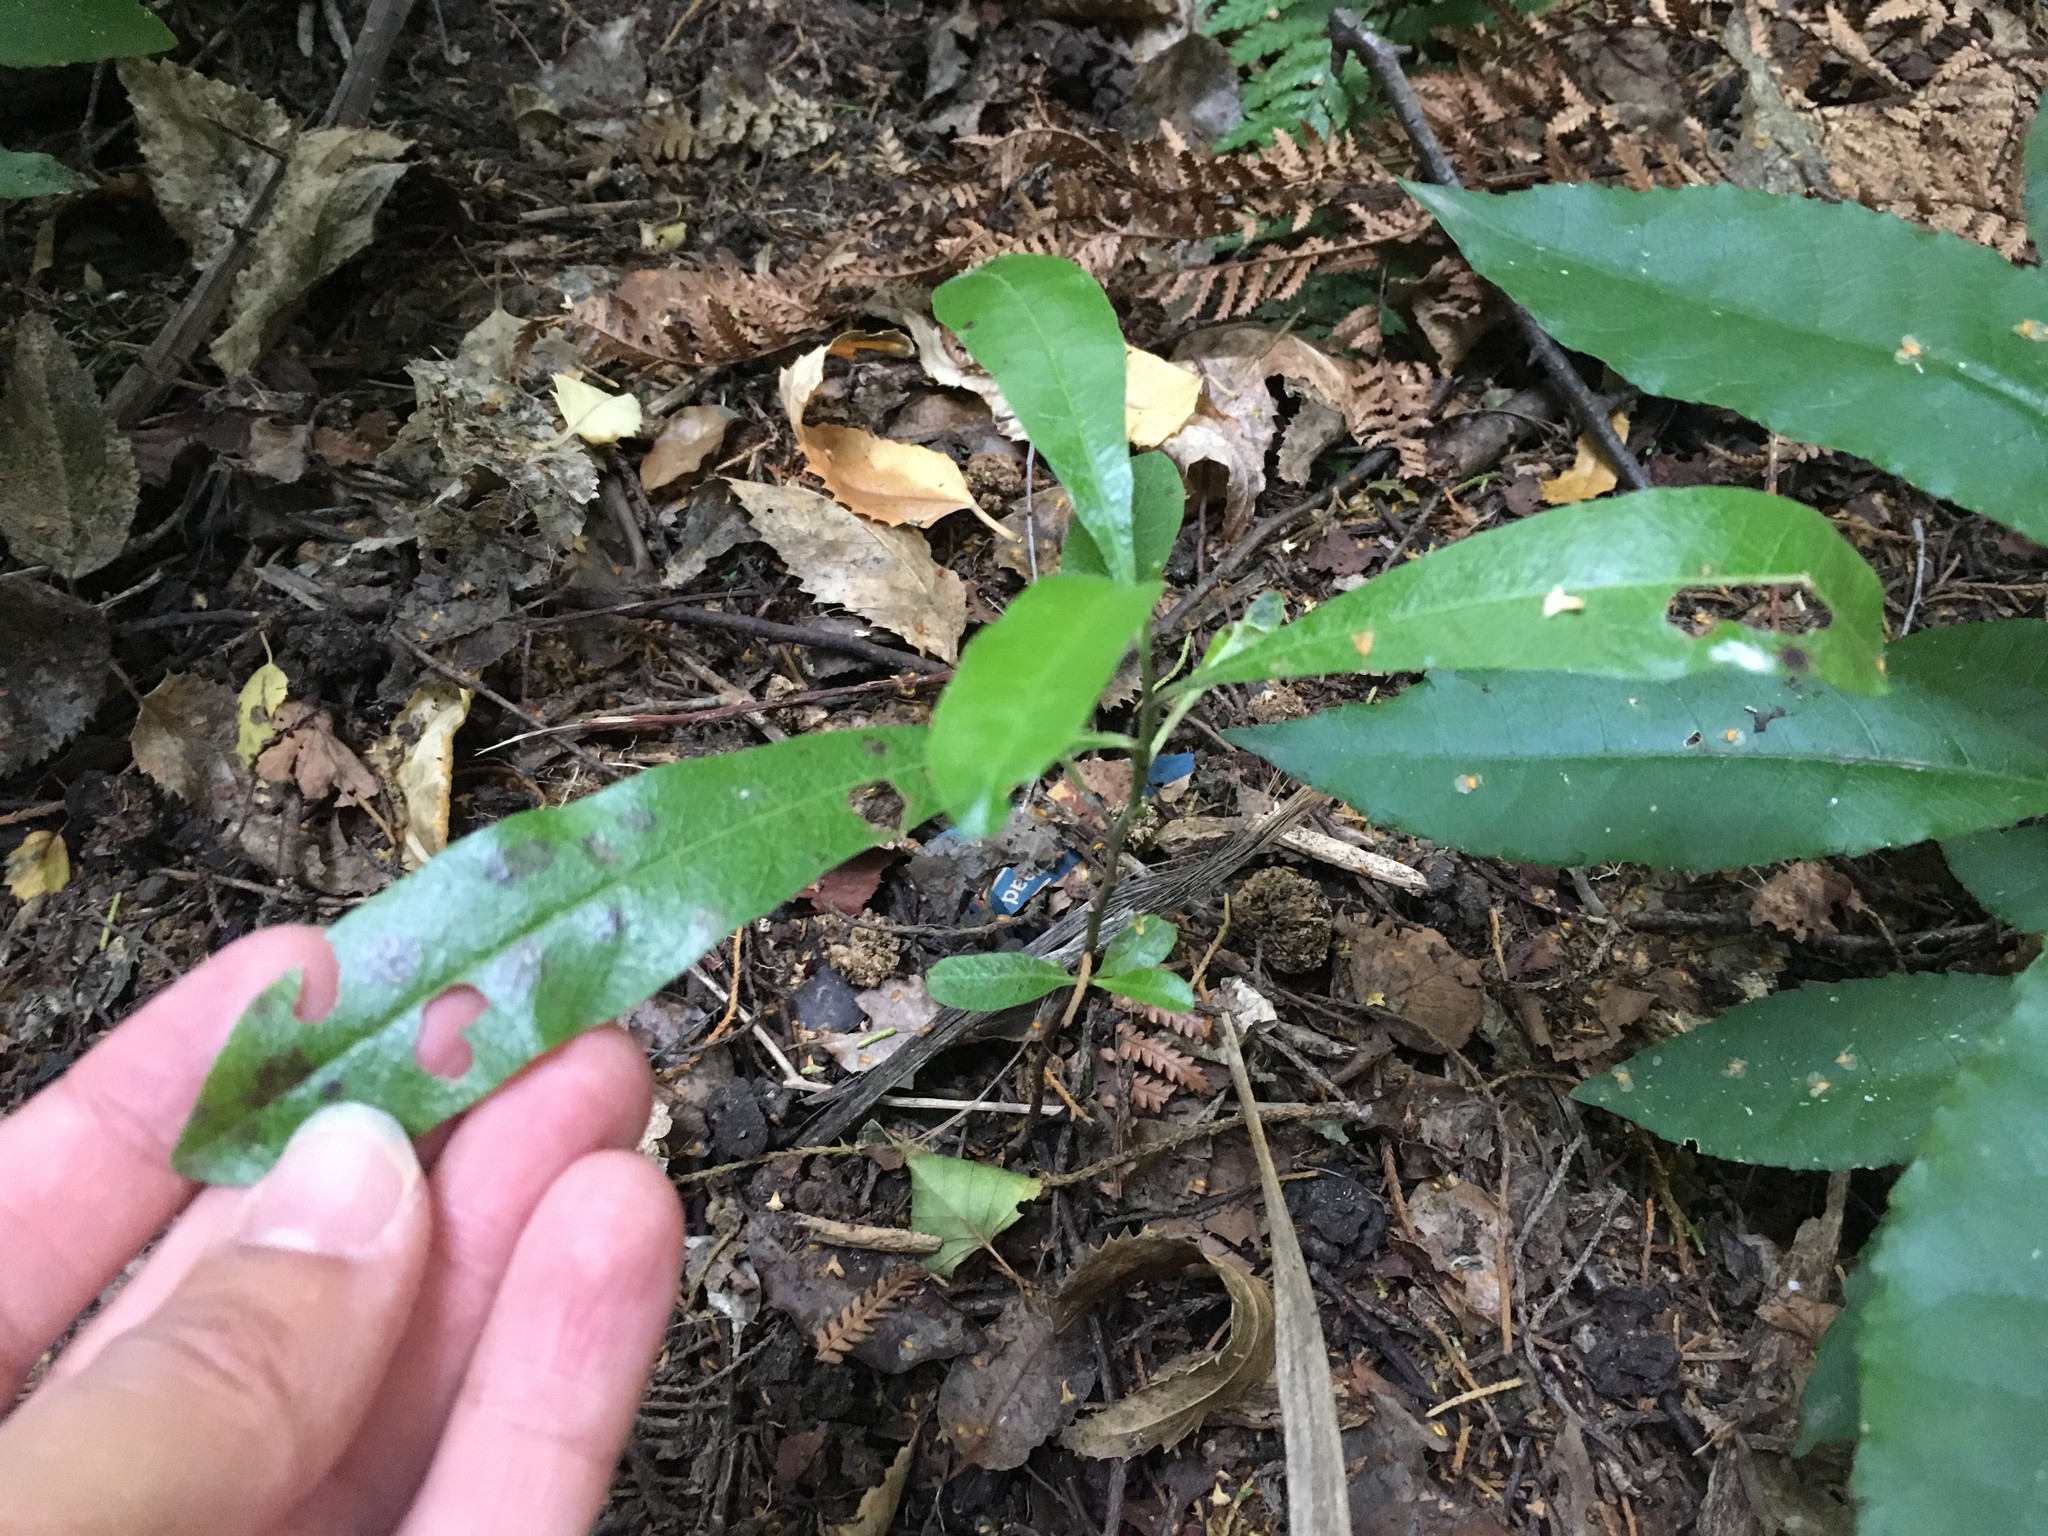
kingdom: Plantae
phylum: Tracheophyta
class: Magnoliopsida
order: Sapindales
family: Sapindaceae
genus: Dodonaea
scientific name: Dodonaea viscosa
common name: Hopbush
